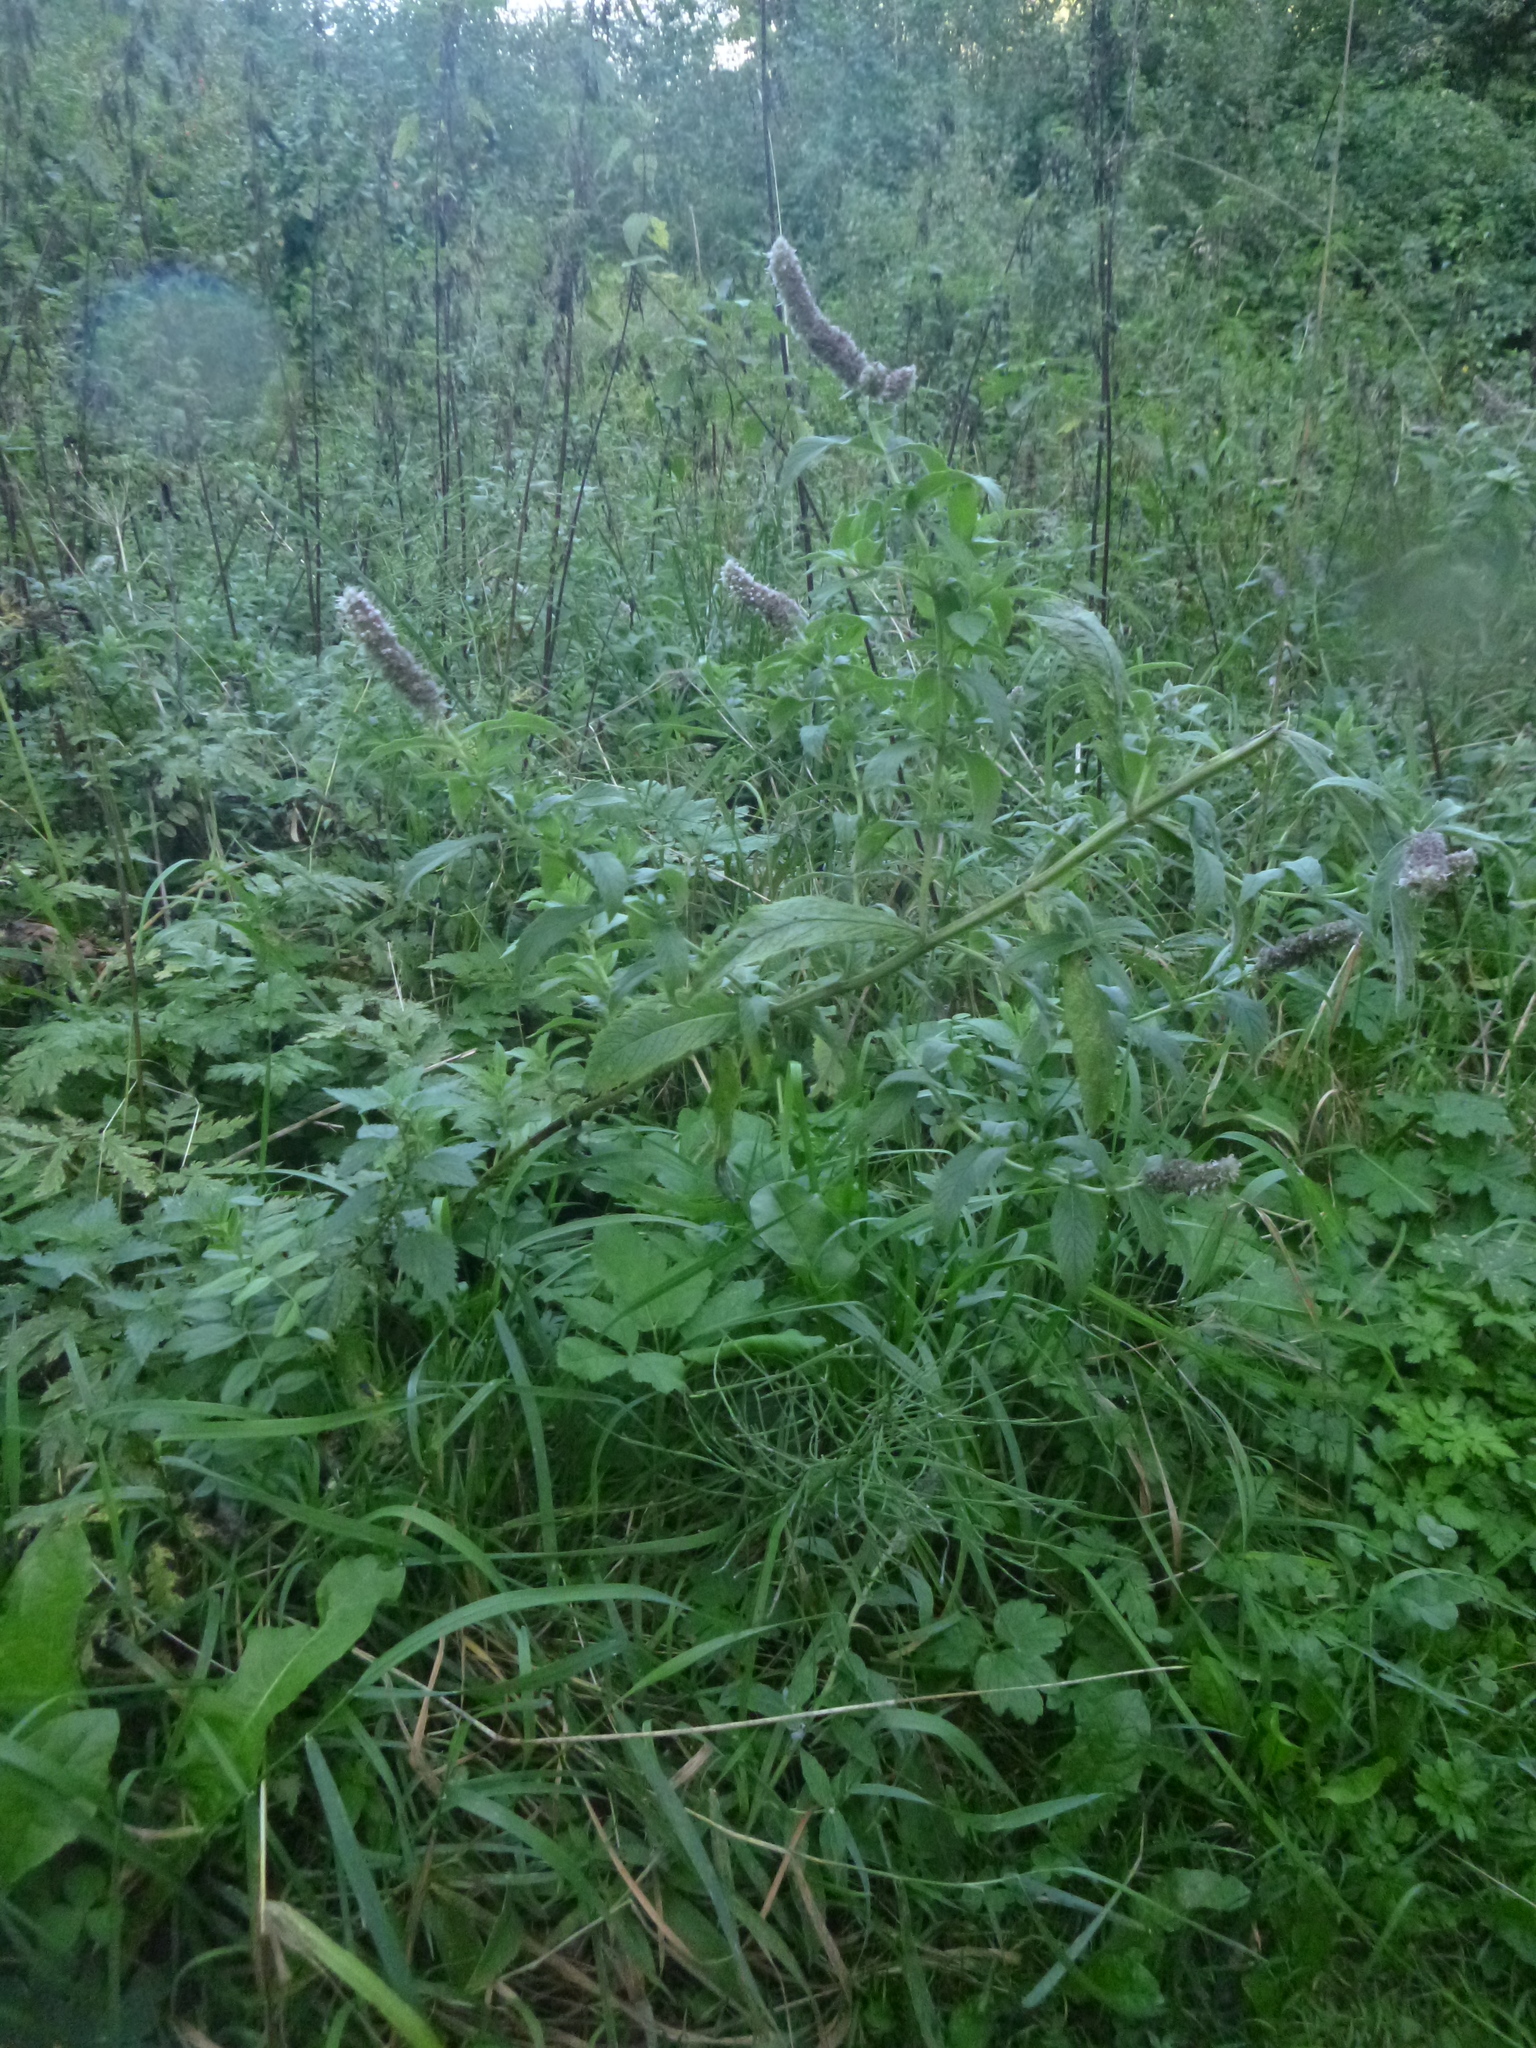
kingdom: Plantae
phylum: Tracheophyta
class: Magnoliopsida
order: Lamiales
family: Lamiaceae
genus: Mentha
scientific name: Mentha longifolia
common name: Horse mint
